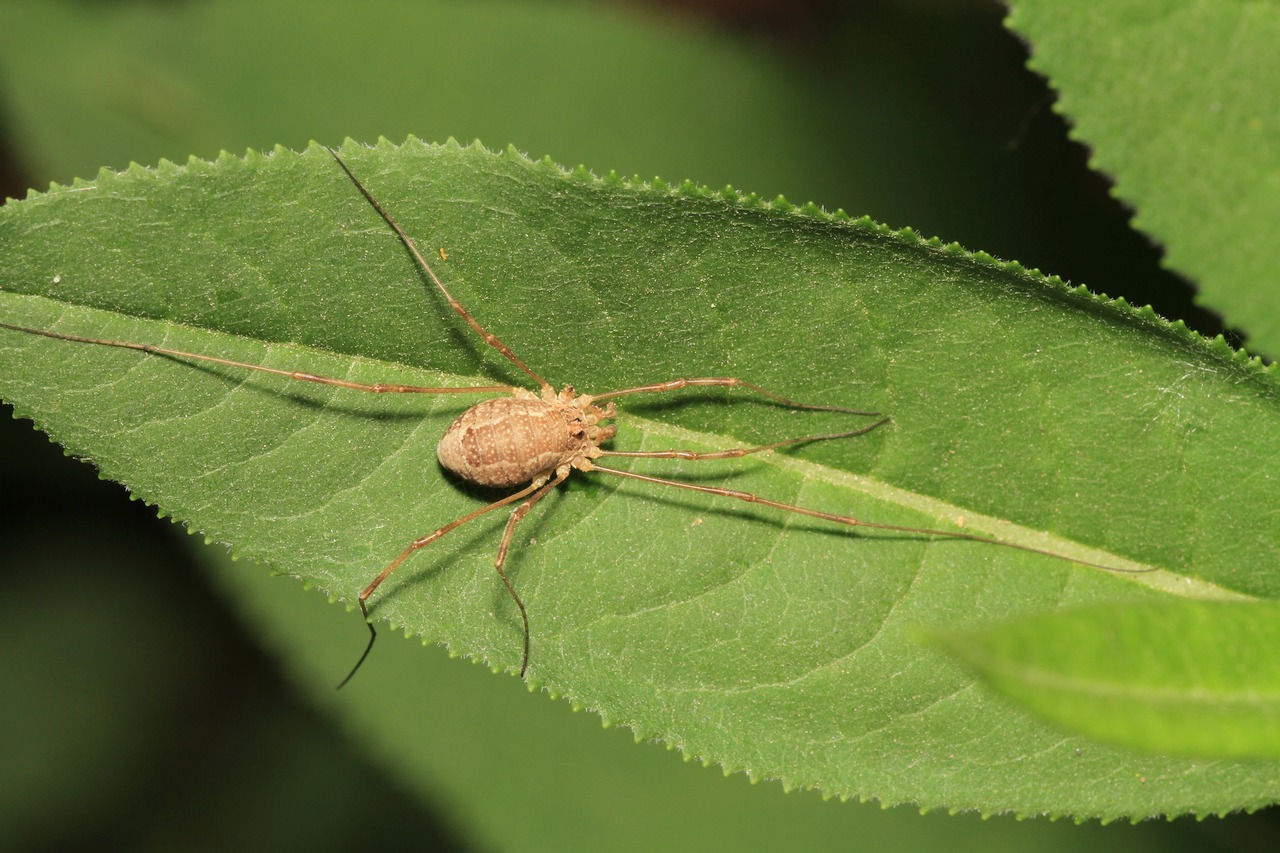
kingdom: Animalia
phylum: Arthropoda
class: Arachnida
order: Opiliones
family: Phalangiidae
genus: Rilaena
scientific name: Rilaena triangularis
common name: Spring harvestman
